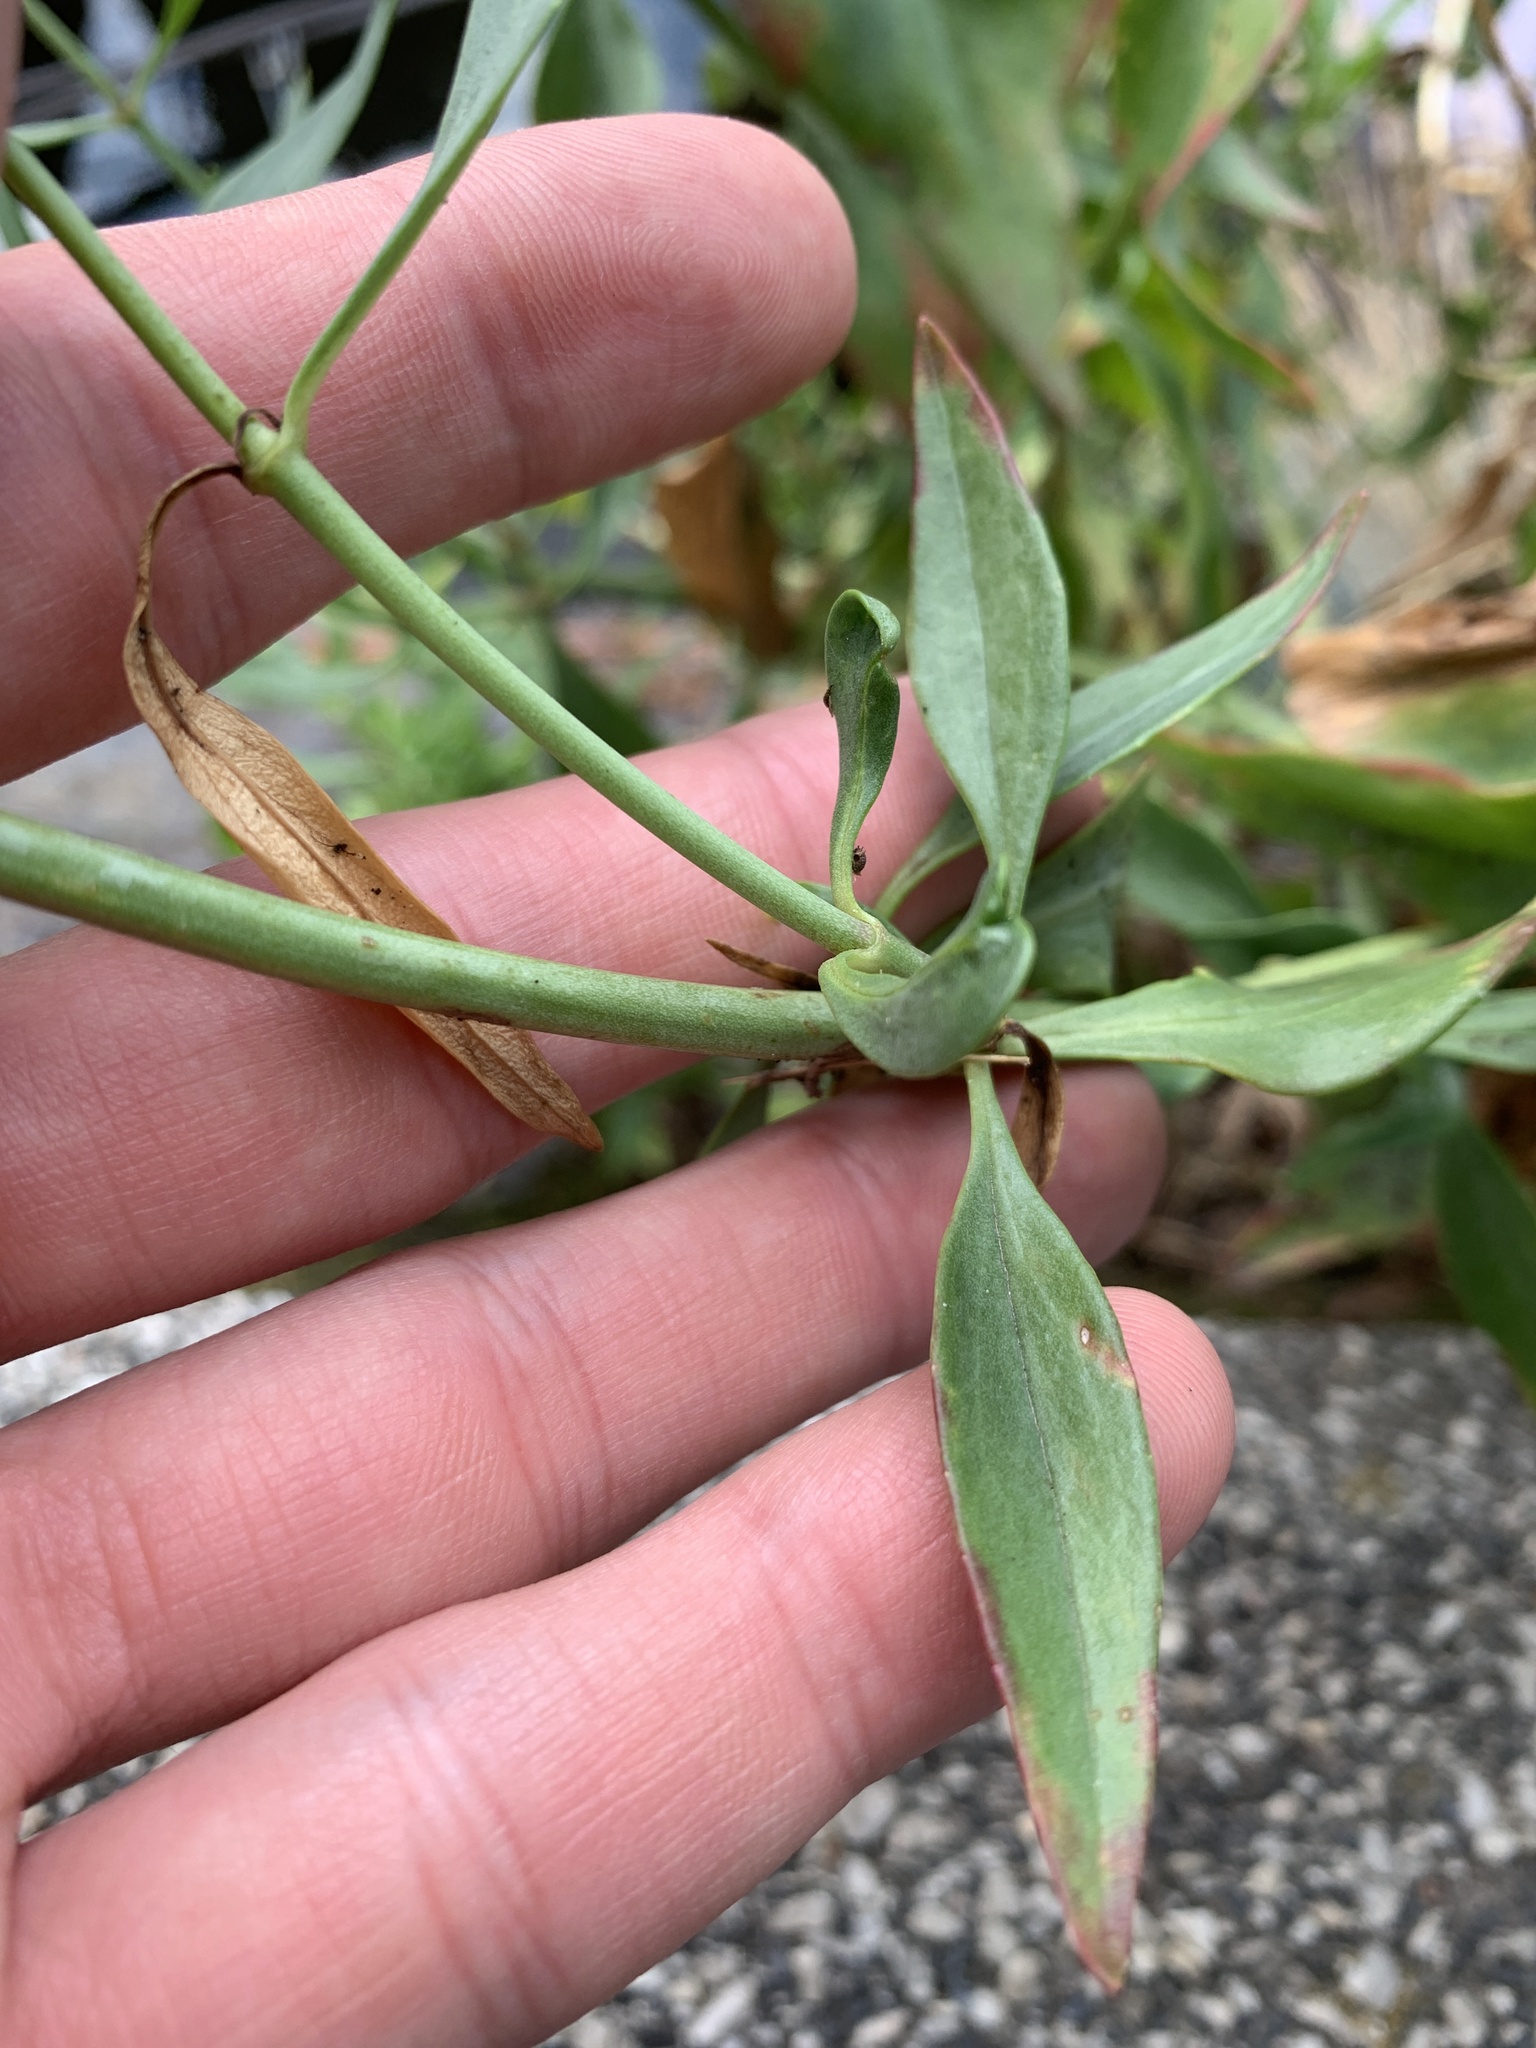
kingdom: Plantae
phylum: Tracheophyta
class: Magnoliopsida
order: Dipsacales
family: Caprifoliaceae
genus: Centranthus
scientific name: Centranthus ruber
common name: Red valerian
